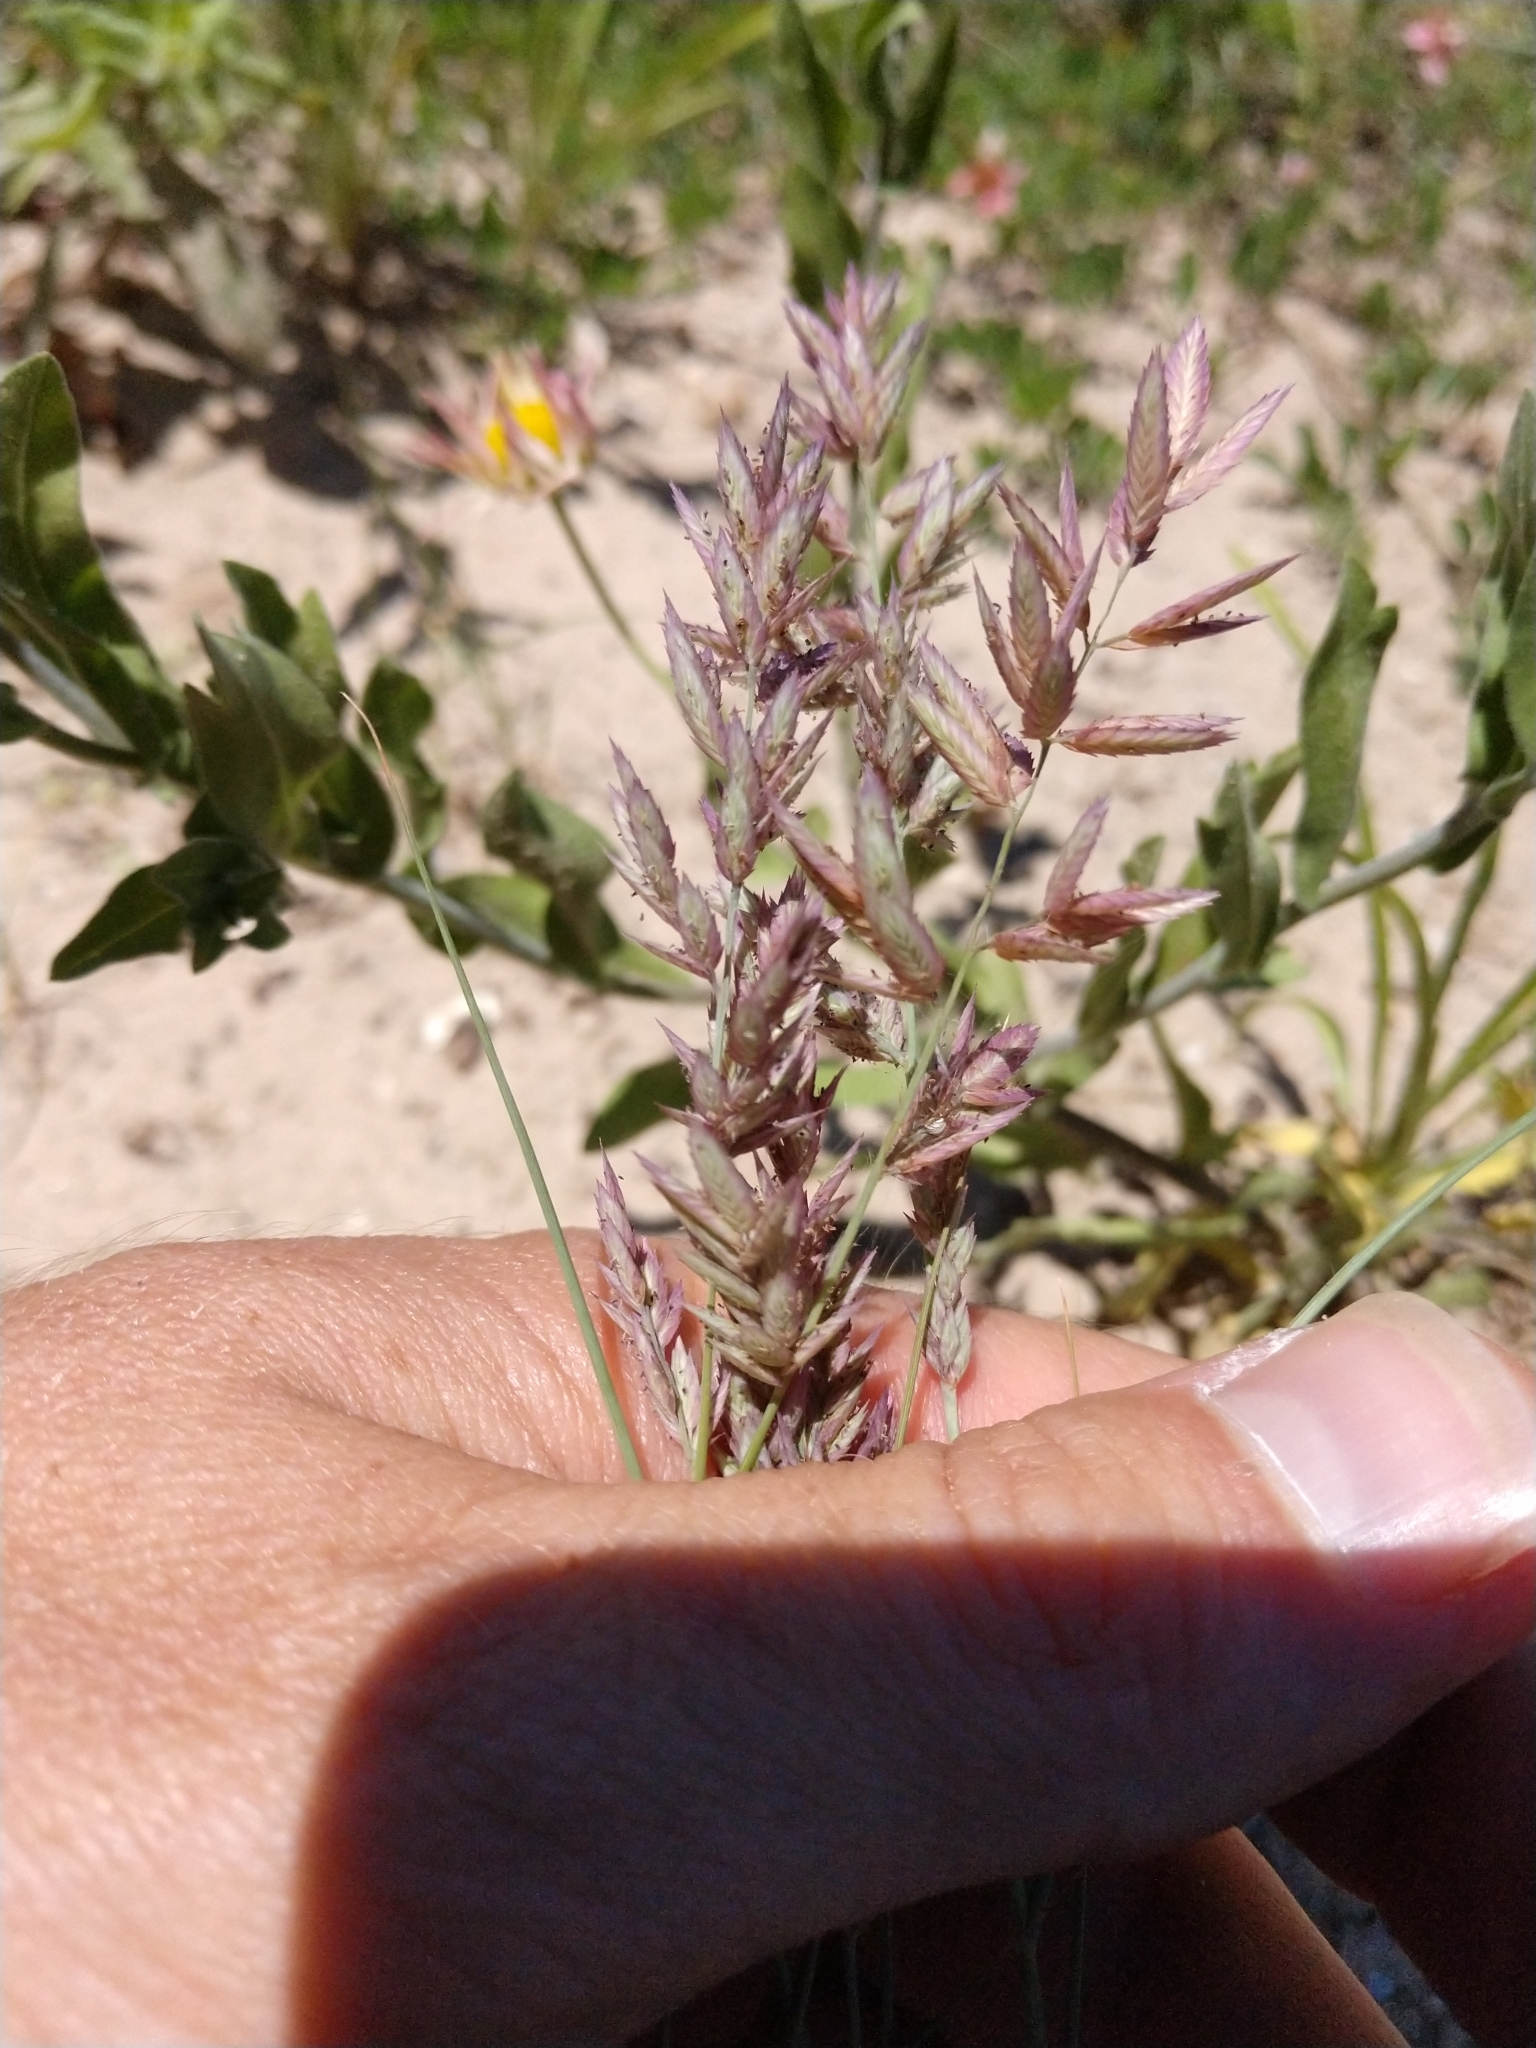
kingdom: Plantae
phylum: Tracheophyta
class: Liliopsida
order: Poales
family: Poaceae
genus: Eragrostis
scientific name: Eragrostis secundiflora
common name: Red love grass
